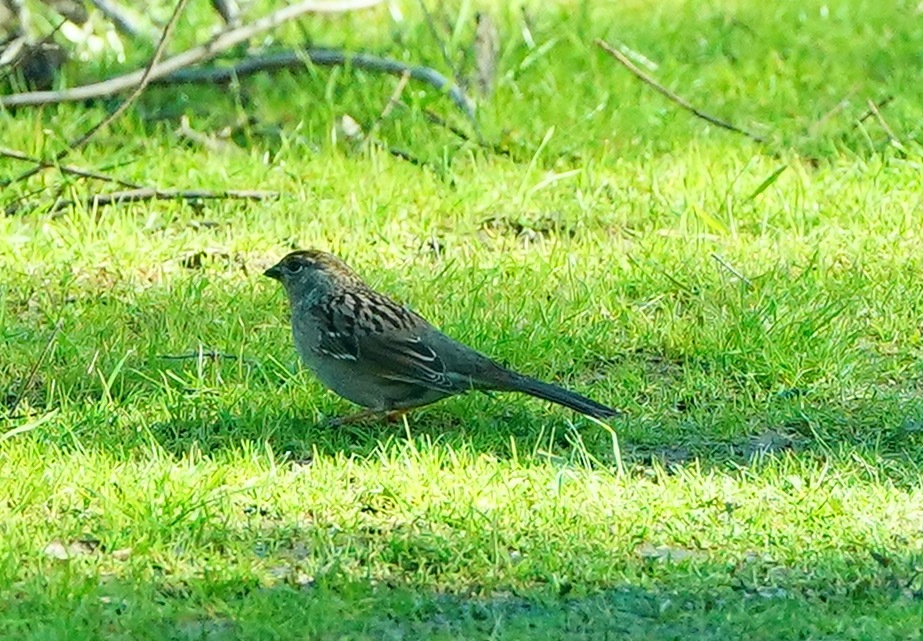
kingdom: Animalia
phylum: Chordata
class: Aves
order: Passeriformes
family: Passerellidae
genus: Zonotrichia
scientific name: Zonotrichia atricapilla
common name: Golden-crowned sparrow
